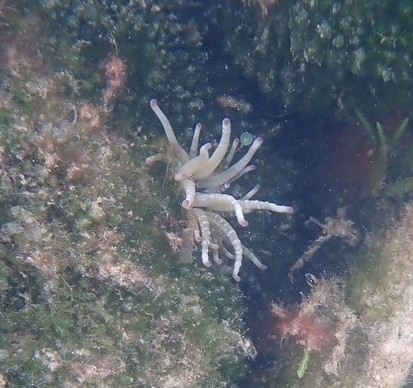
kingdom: Animalia
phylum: Cnidaria
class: Anthozoa
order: Actiniaria
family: Actiniidae
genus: Condylactis
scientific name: Condylactis gigantea
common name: Giant caribbean anemone
